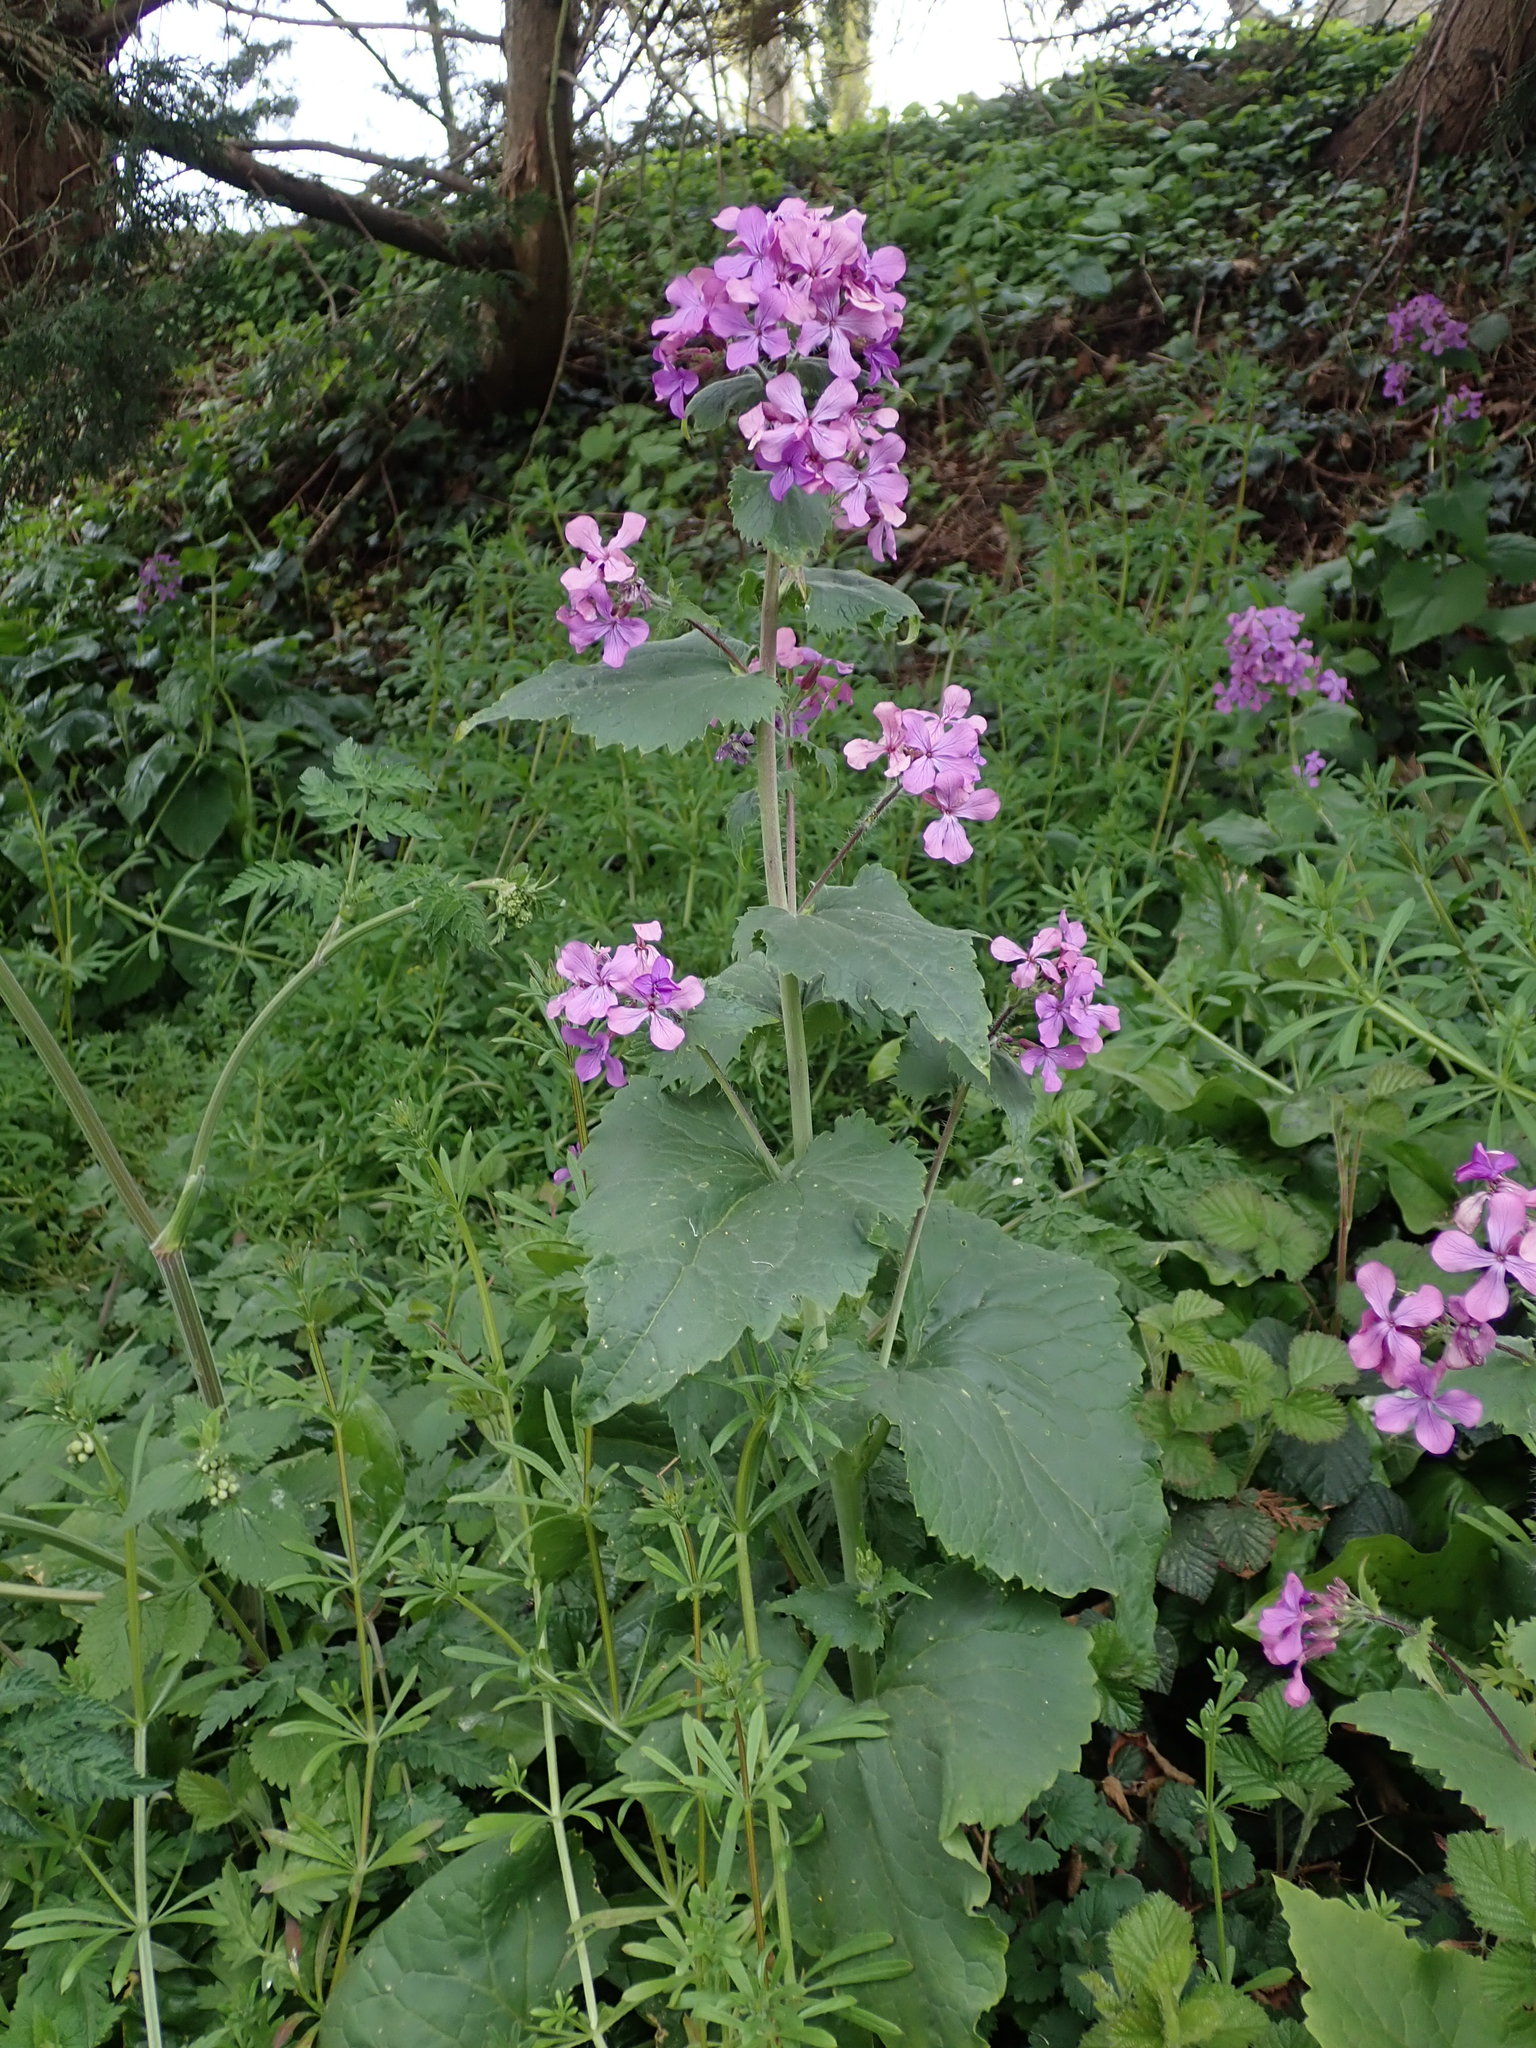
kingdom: Plantae
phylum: Tracheophyta
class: Magnoliopsida
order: Brassicales
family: Brassicaceae
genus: Lunaria
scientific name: Lunaria annua
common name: Honesty
